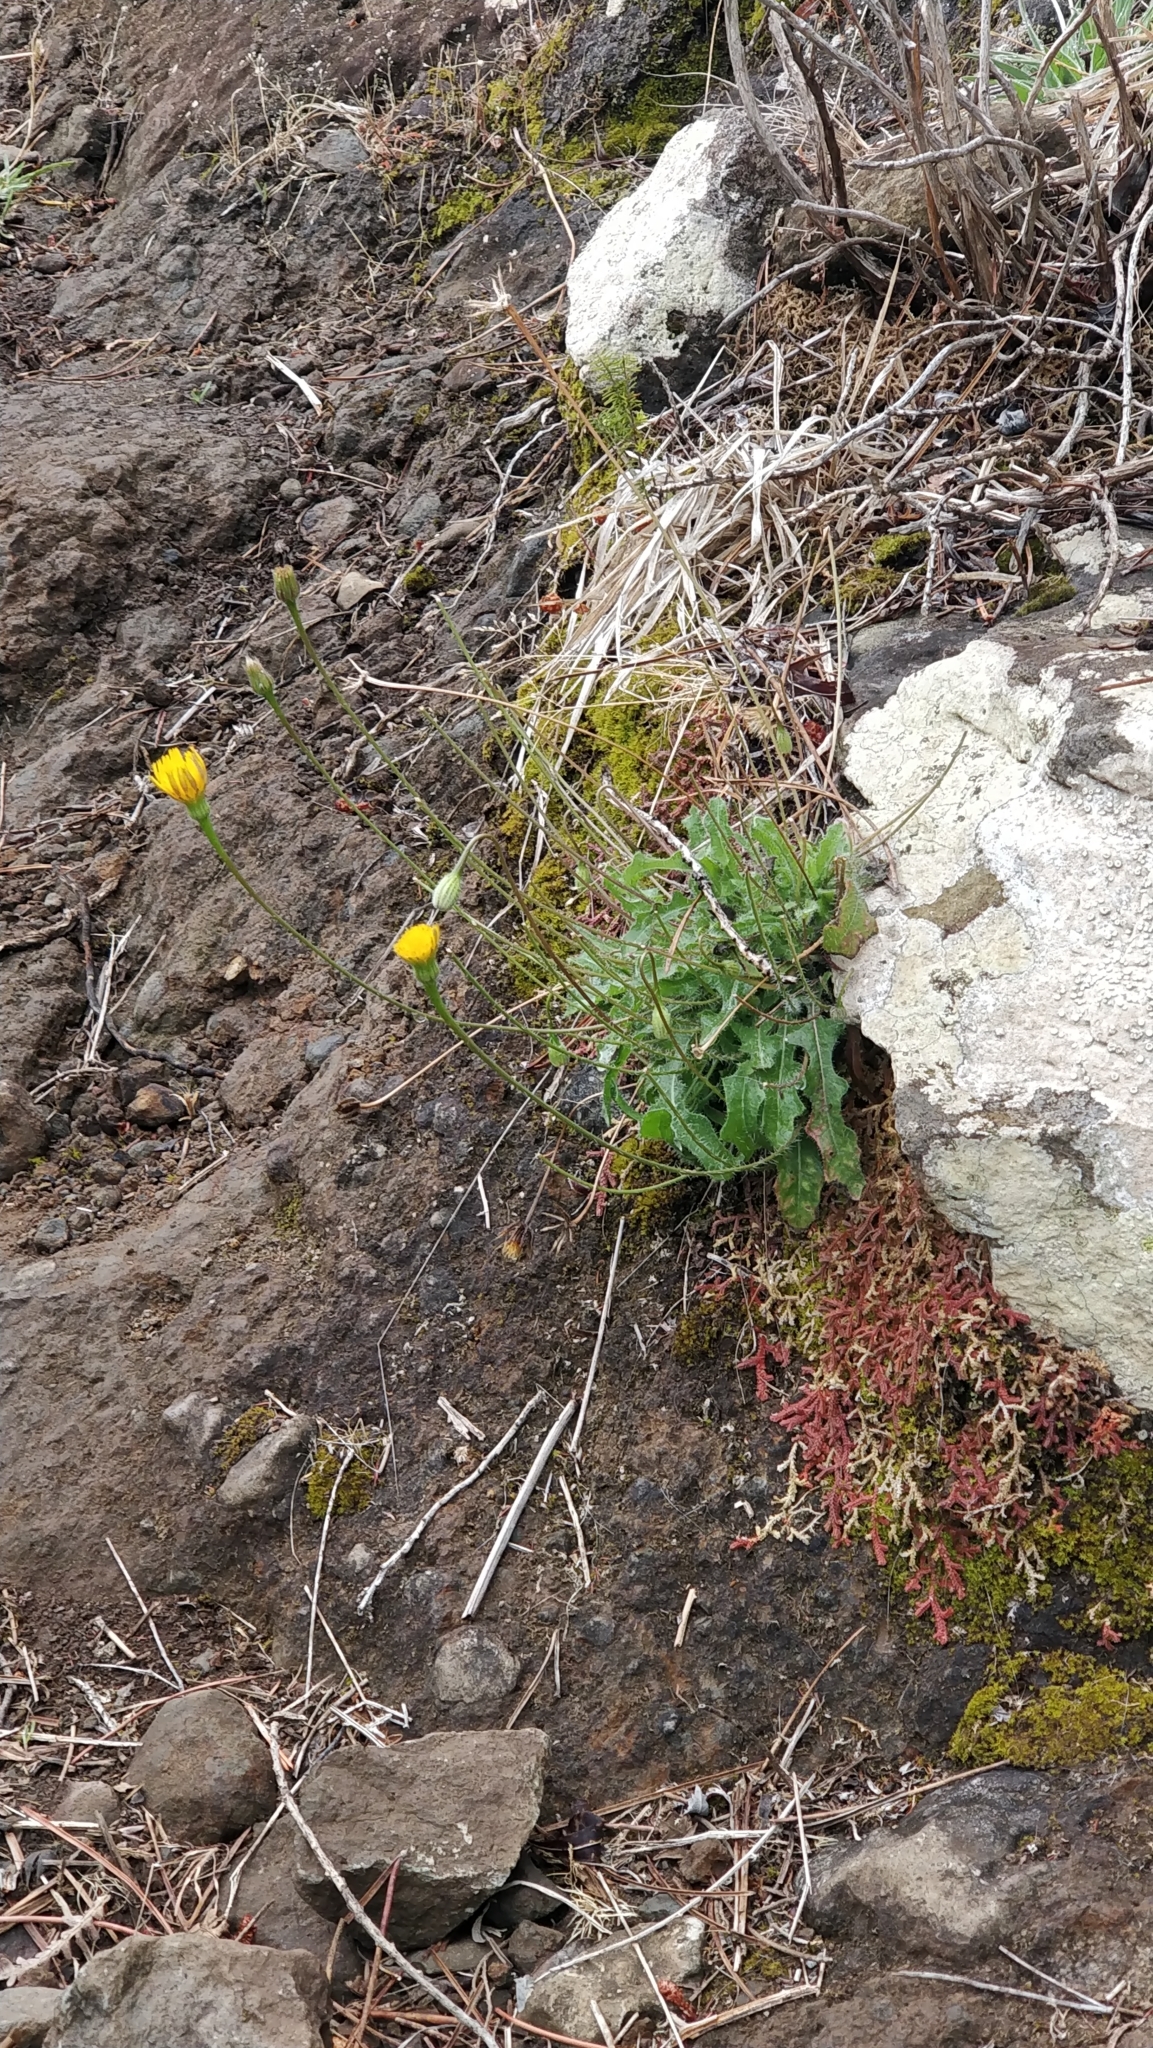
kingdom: Plantae
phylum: Tracheophyta
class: Magnoliopsida
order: Asterales
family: Asteraceae
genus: Hypochaeris
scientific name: Hypochaeris radicata
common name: Flatweed
